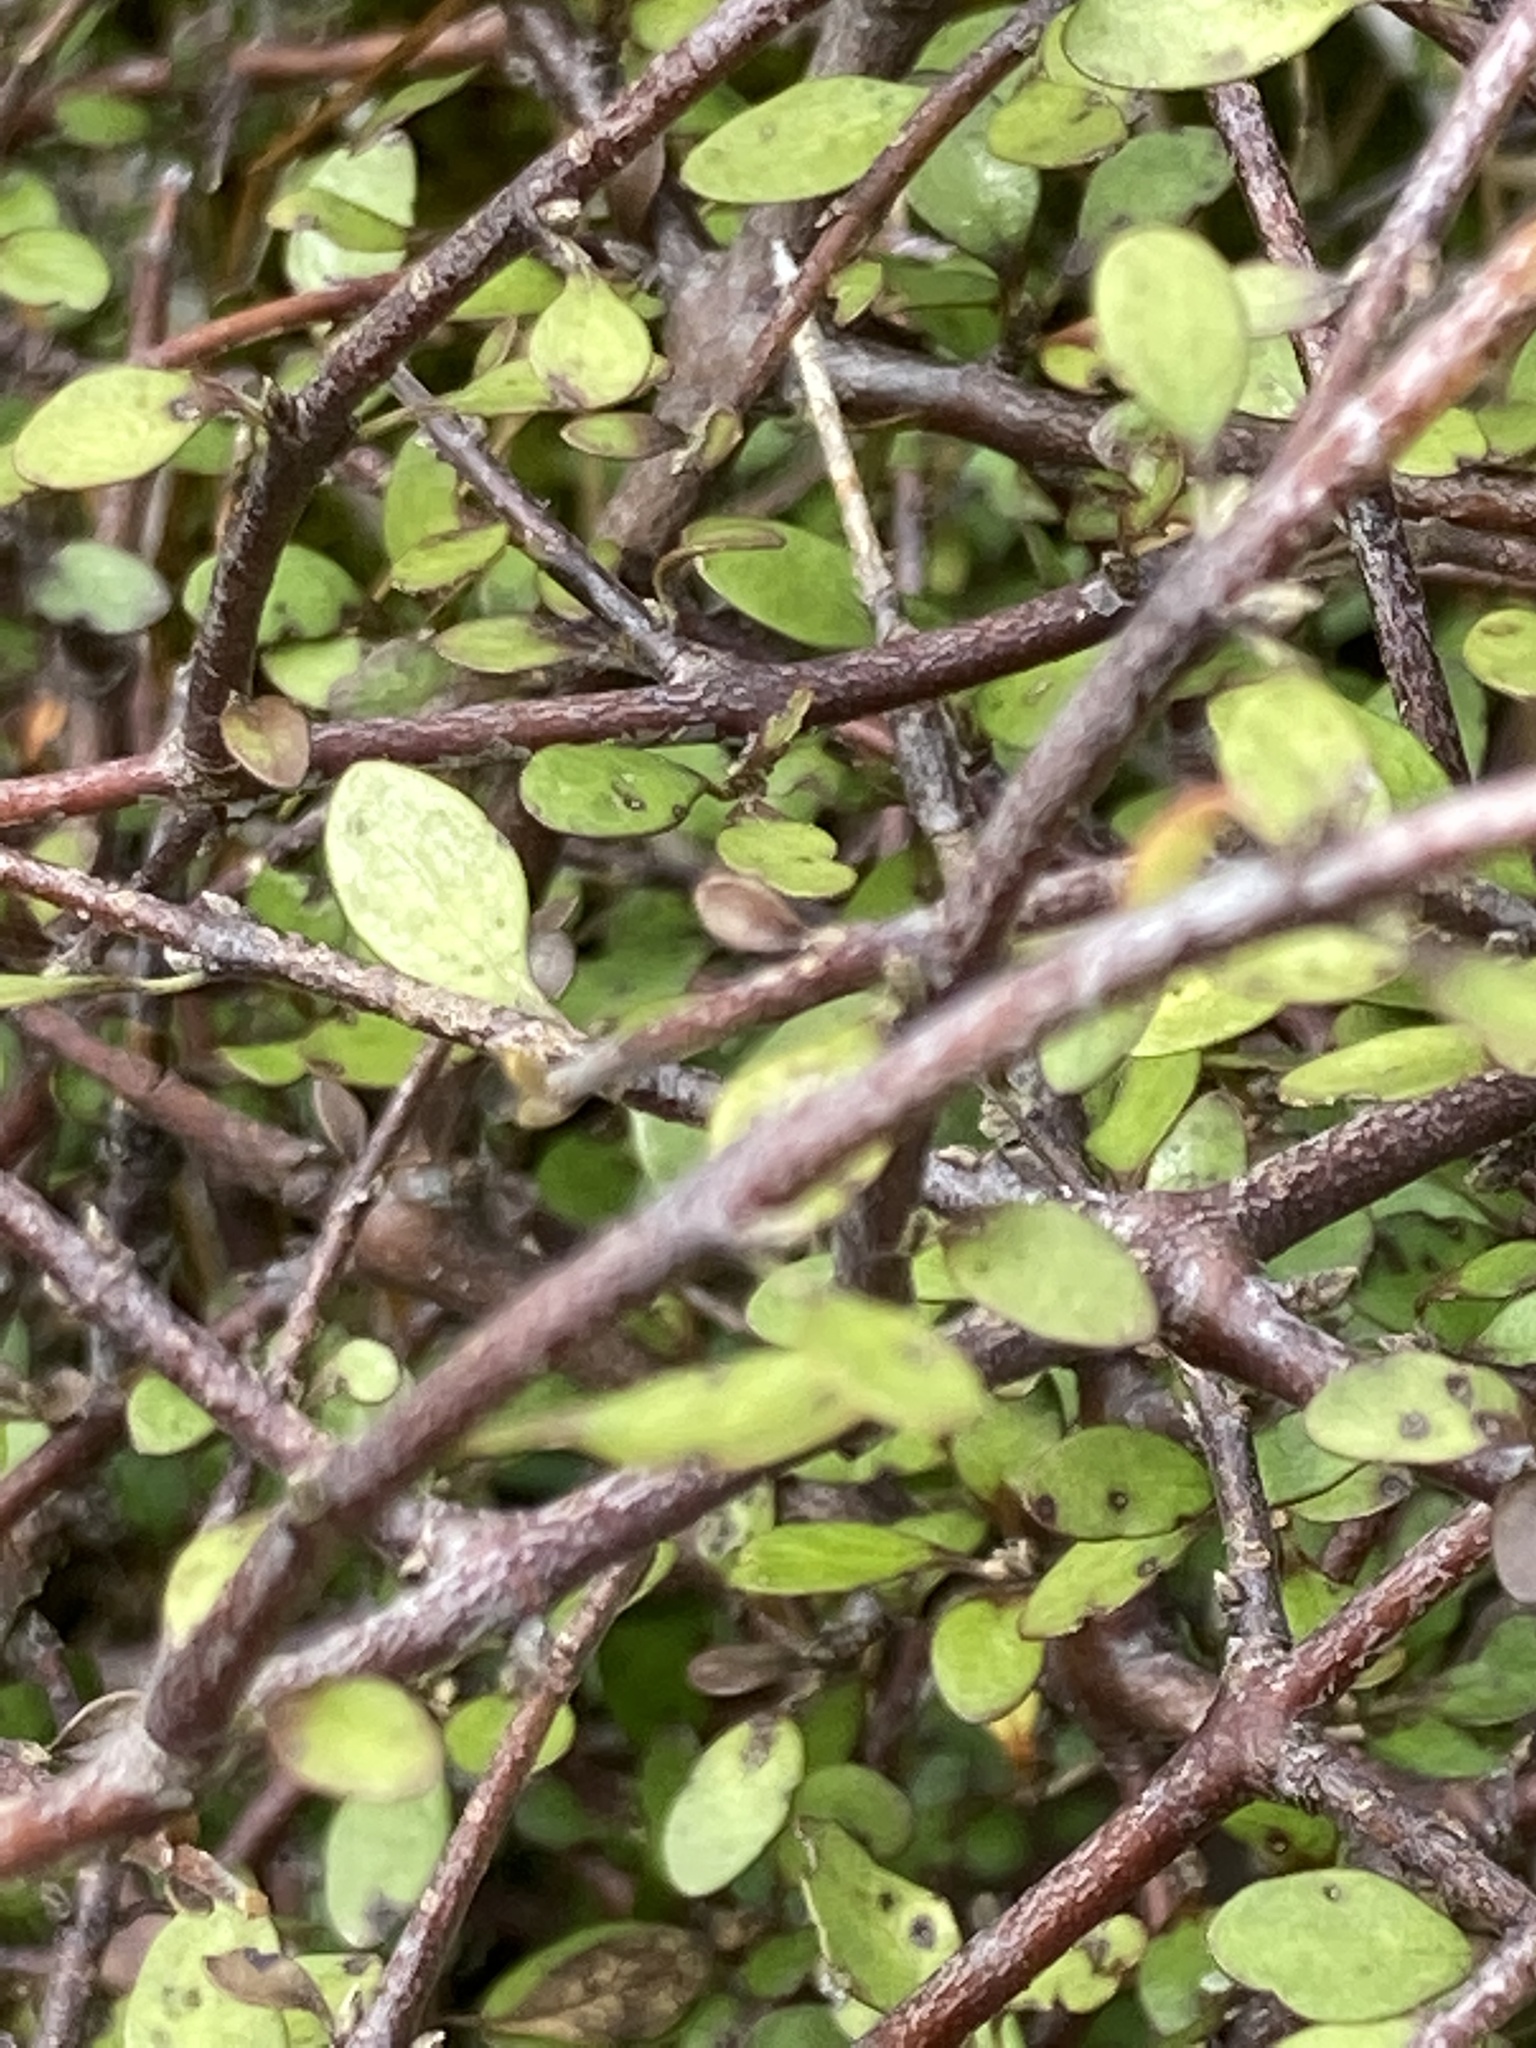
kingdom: Plantae
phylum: Tracheophyta
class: Magnoliopsida
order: Oxalidales
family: Elaeocarpaceae
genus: Aristotelia
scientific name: Aristotelia fruticosa
